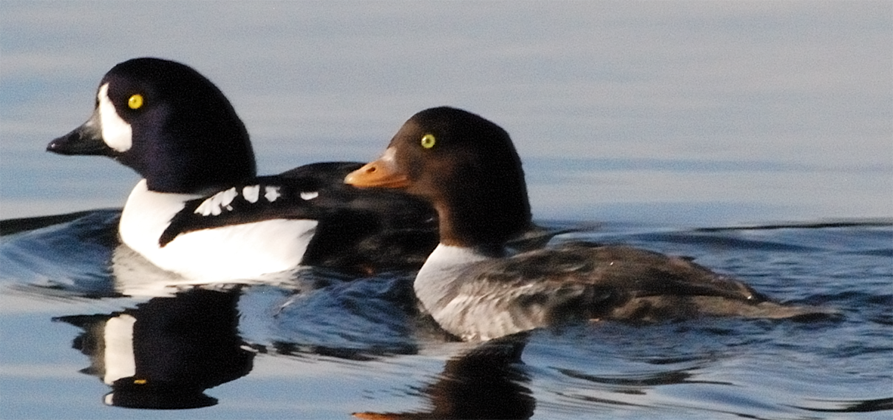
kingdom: Animalia
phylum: Chordata
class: Aves
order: Anseriformes
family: Anatidae
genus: Bucephala
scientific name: Bucephala islandica
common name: Barrow's goldeneye
